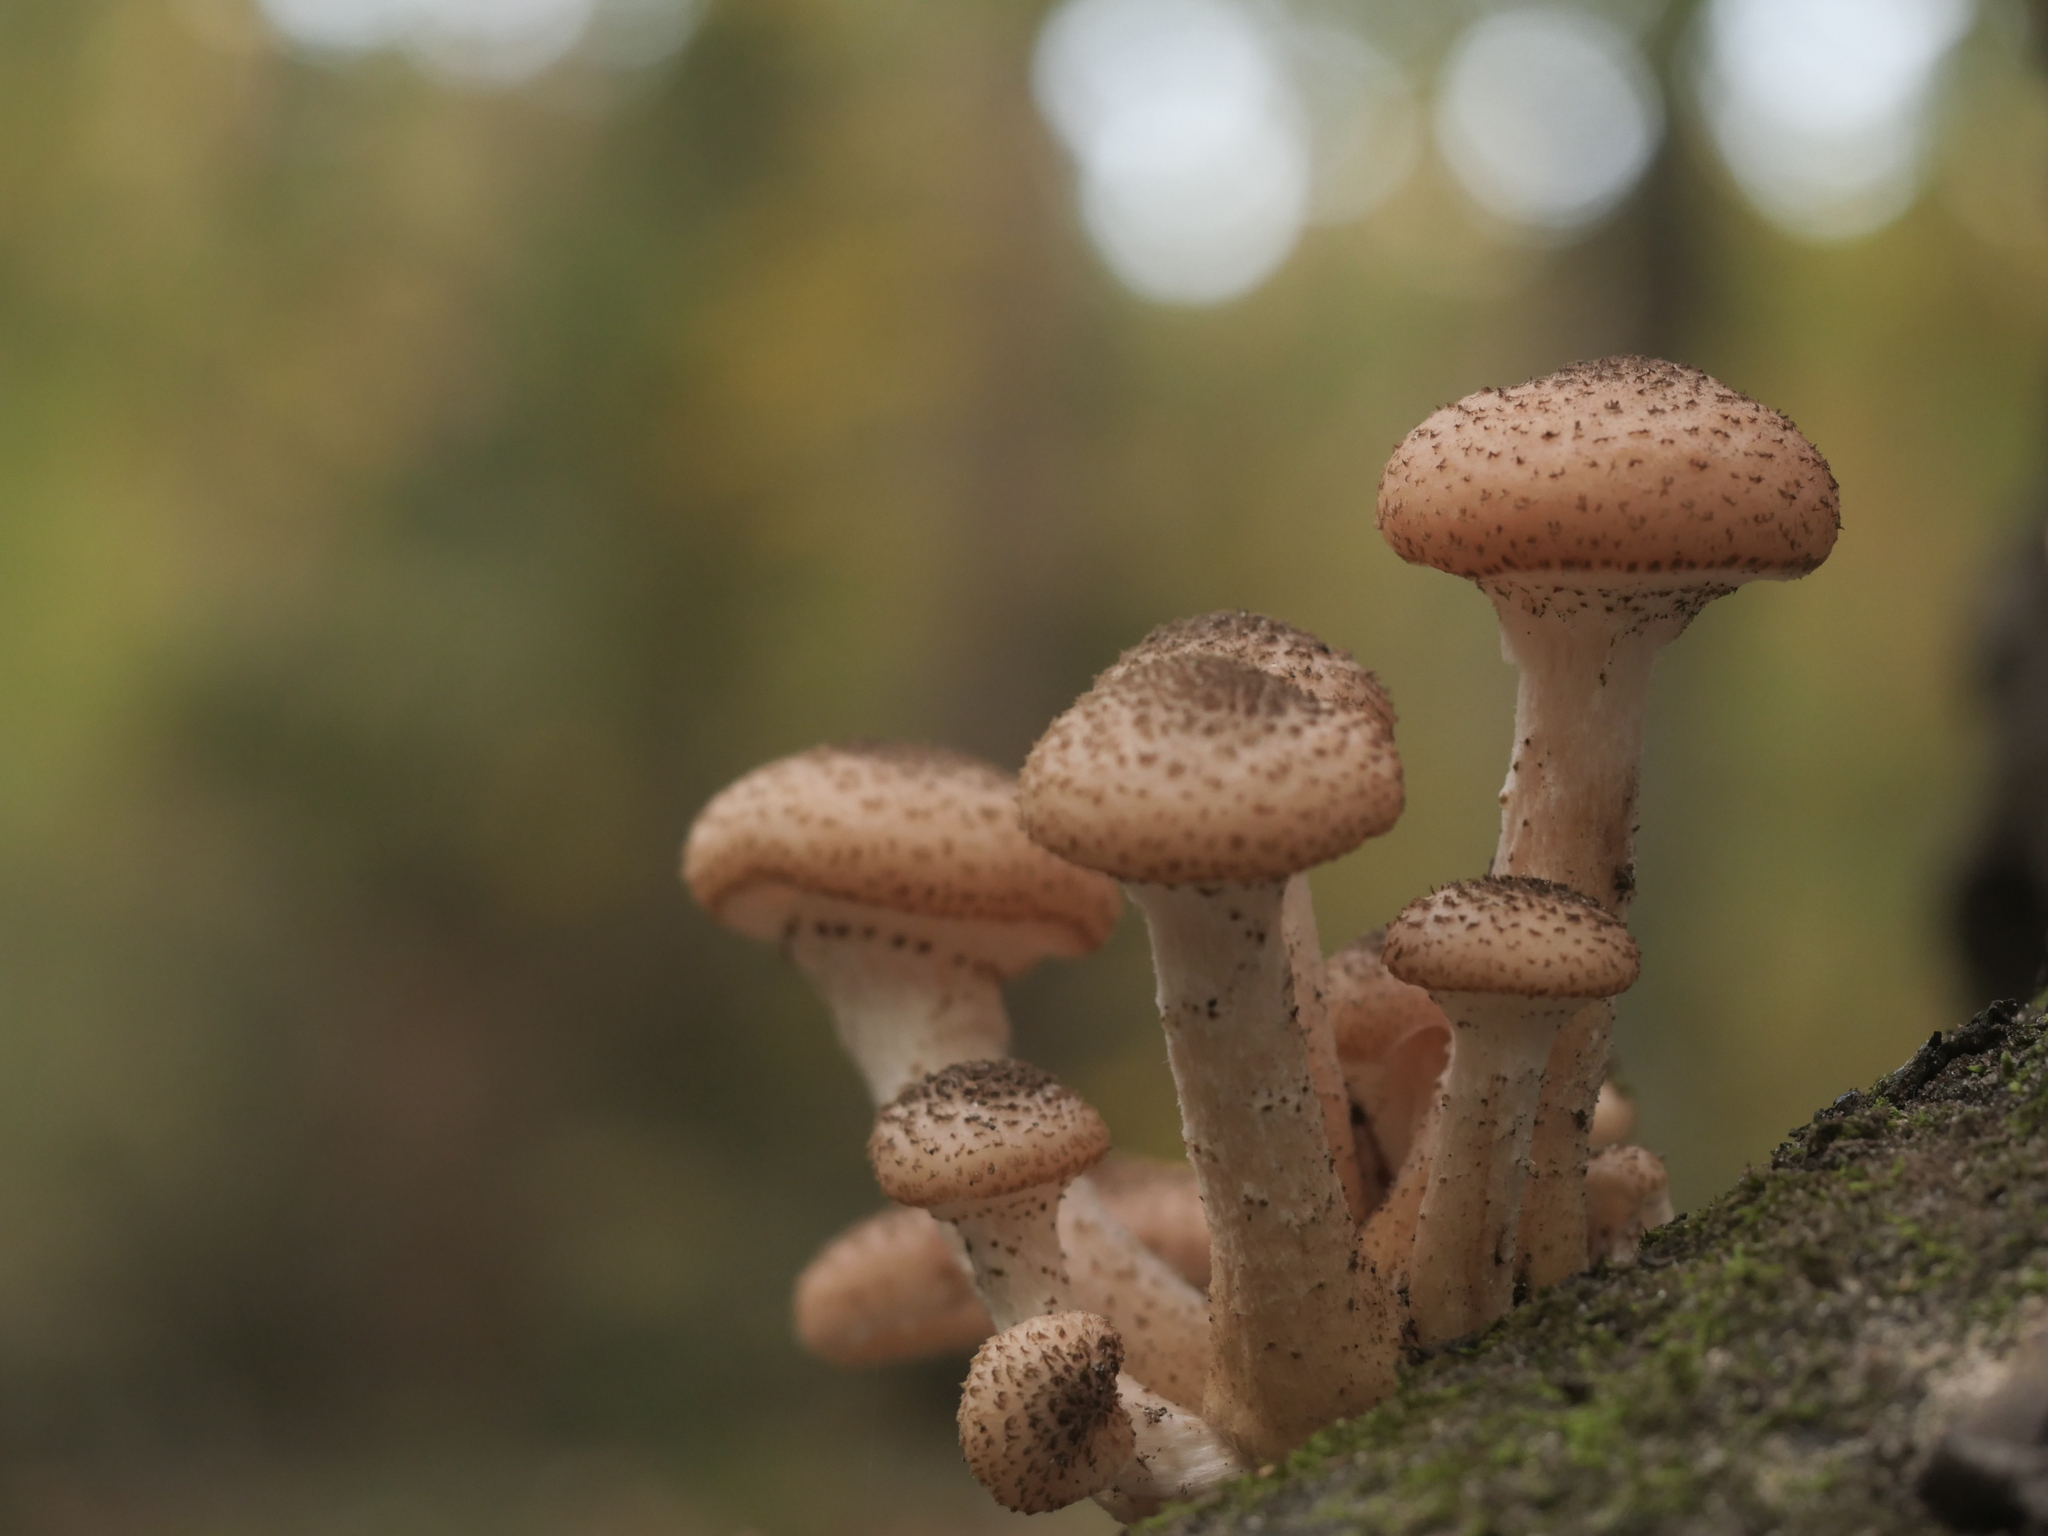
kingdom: Fungi
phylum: Basidiomycota
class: Agaricomycetes
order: Agaricales
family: Physalacriaceae
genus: Armillaria
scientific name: Armillaria ostoyae
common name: Dark honey fungus
